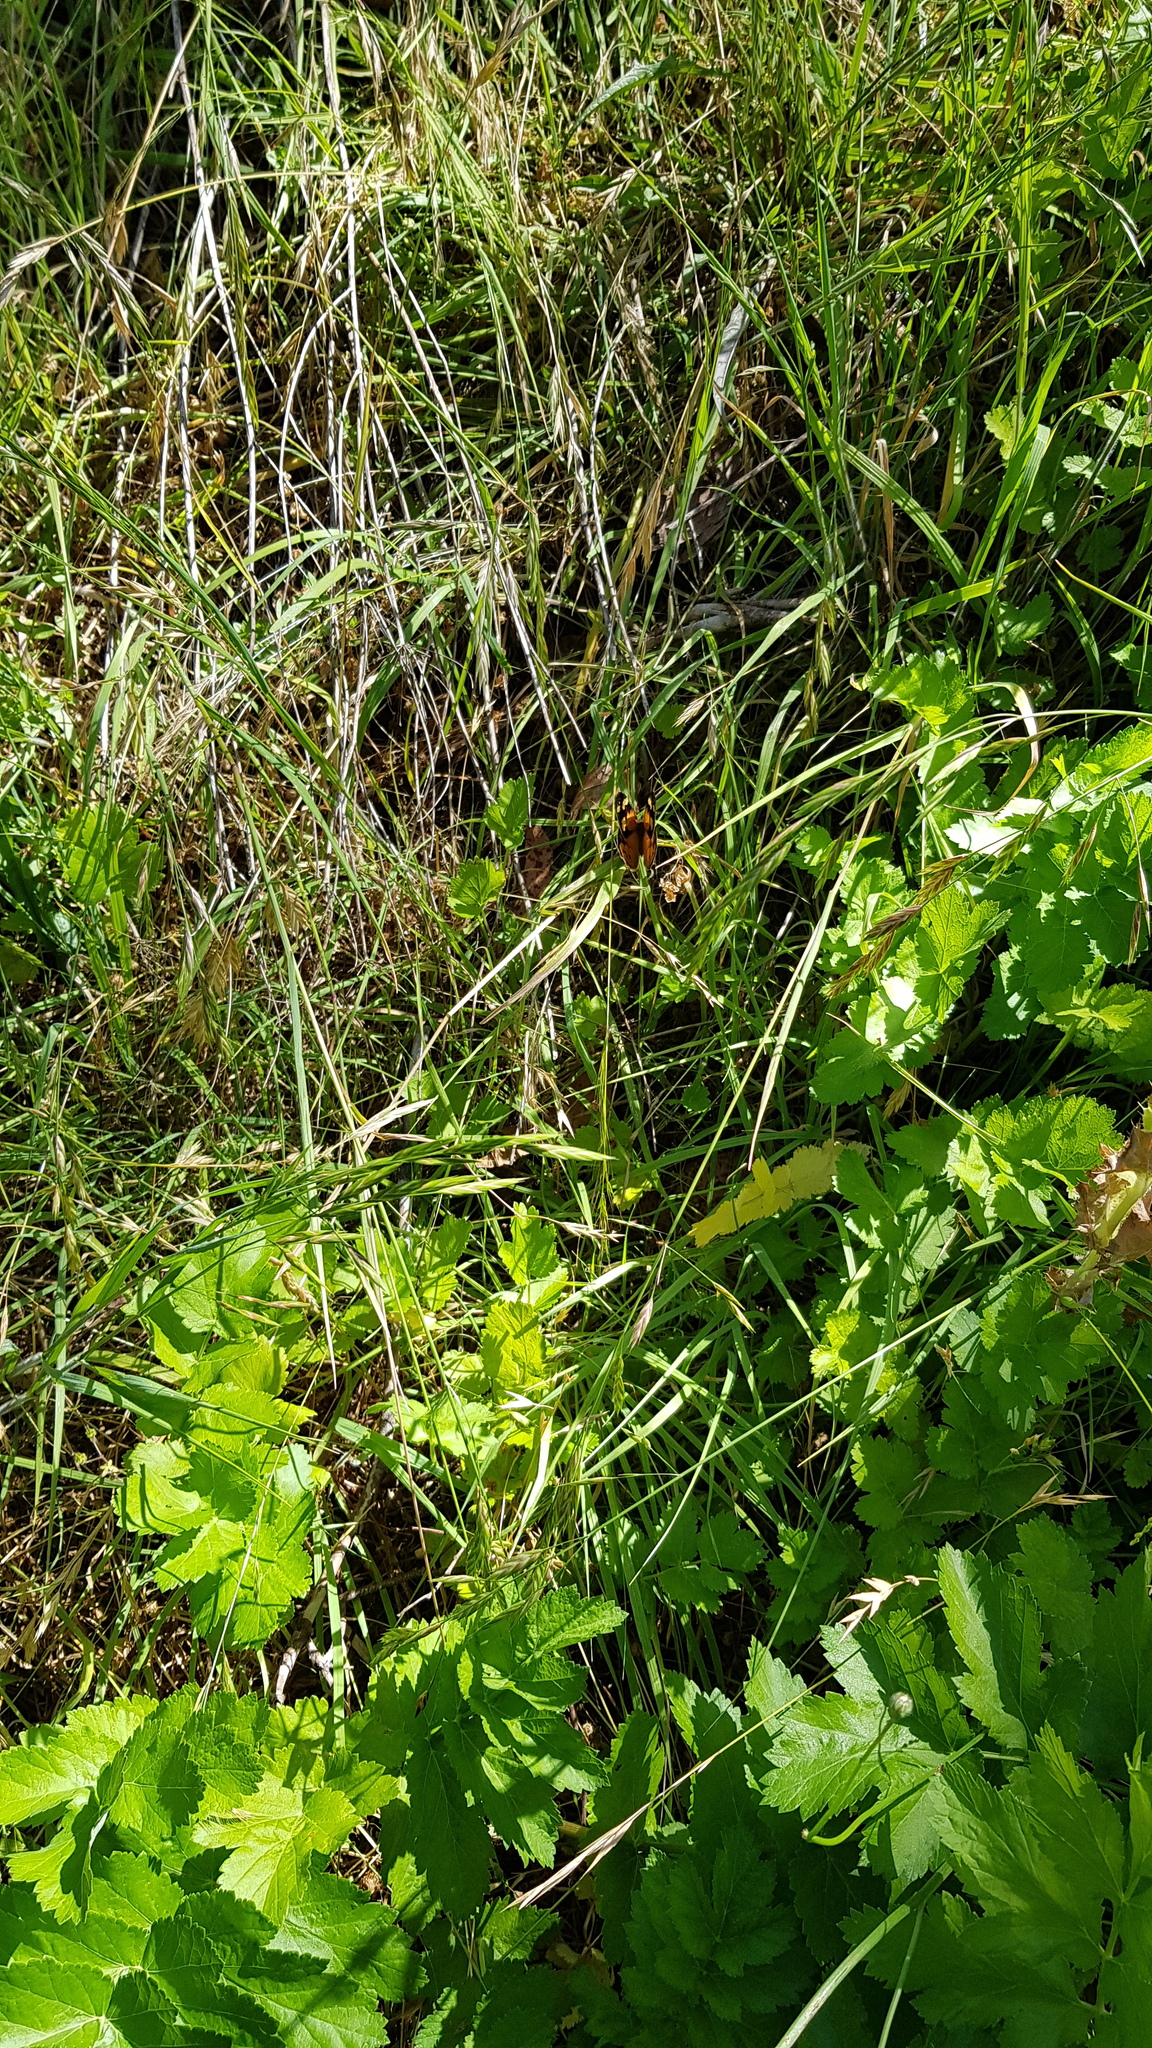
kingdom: Animalia
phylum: Arthropoda
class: Insecta
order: Lepidoptera
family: Nymphalidae
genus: Heteronympha
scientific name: Heteronympha merope
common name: Common brown
